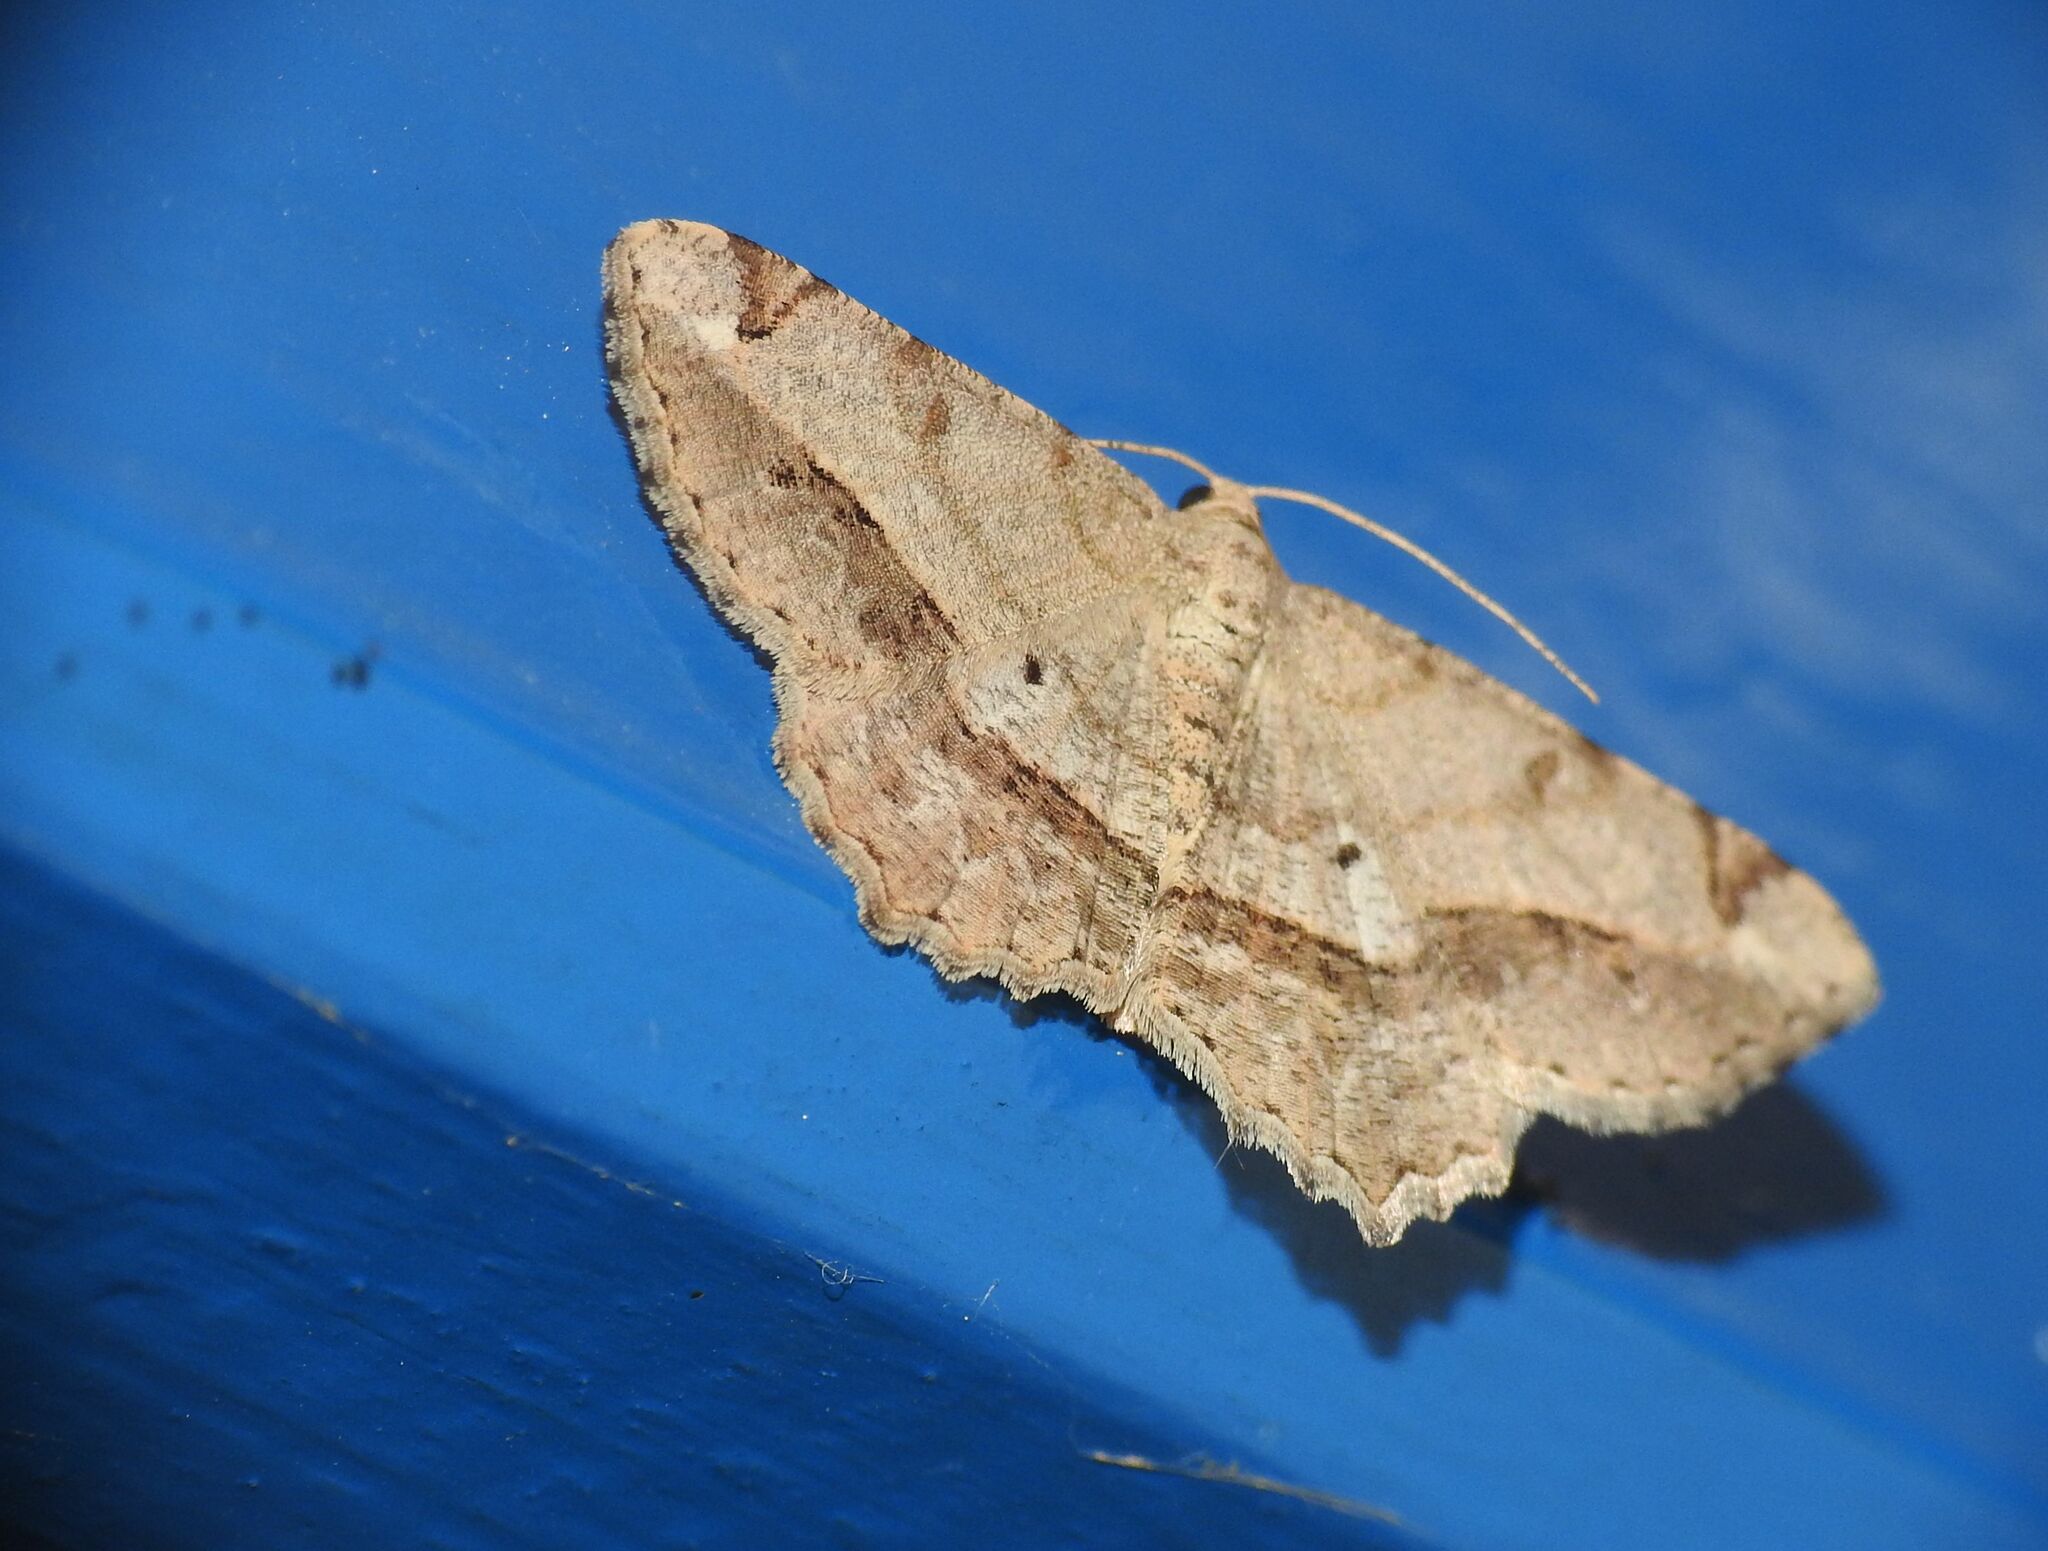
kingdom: Animalia
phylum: Arthropoda
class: Insecta
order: Lepidoptera
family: Geometridae
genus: Chiasmia
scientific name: Chiasmia aestimaria
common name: Tamarisk peacock
